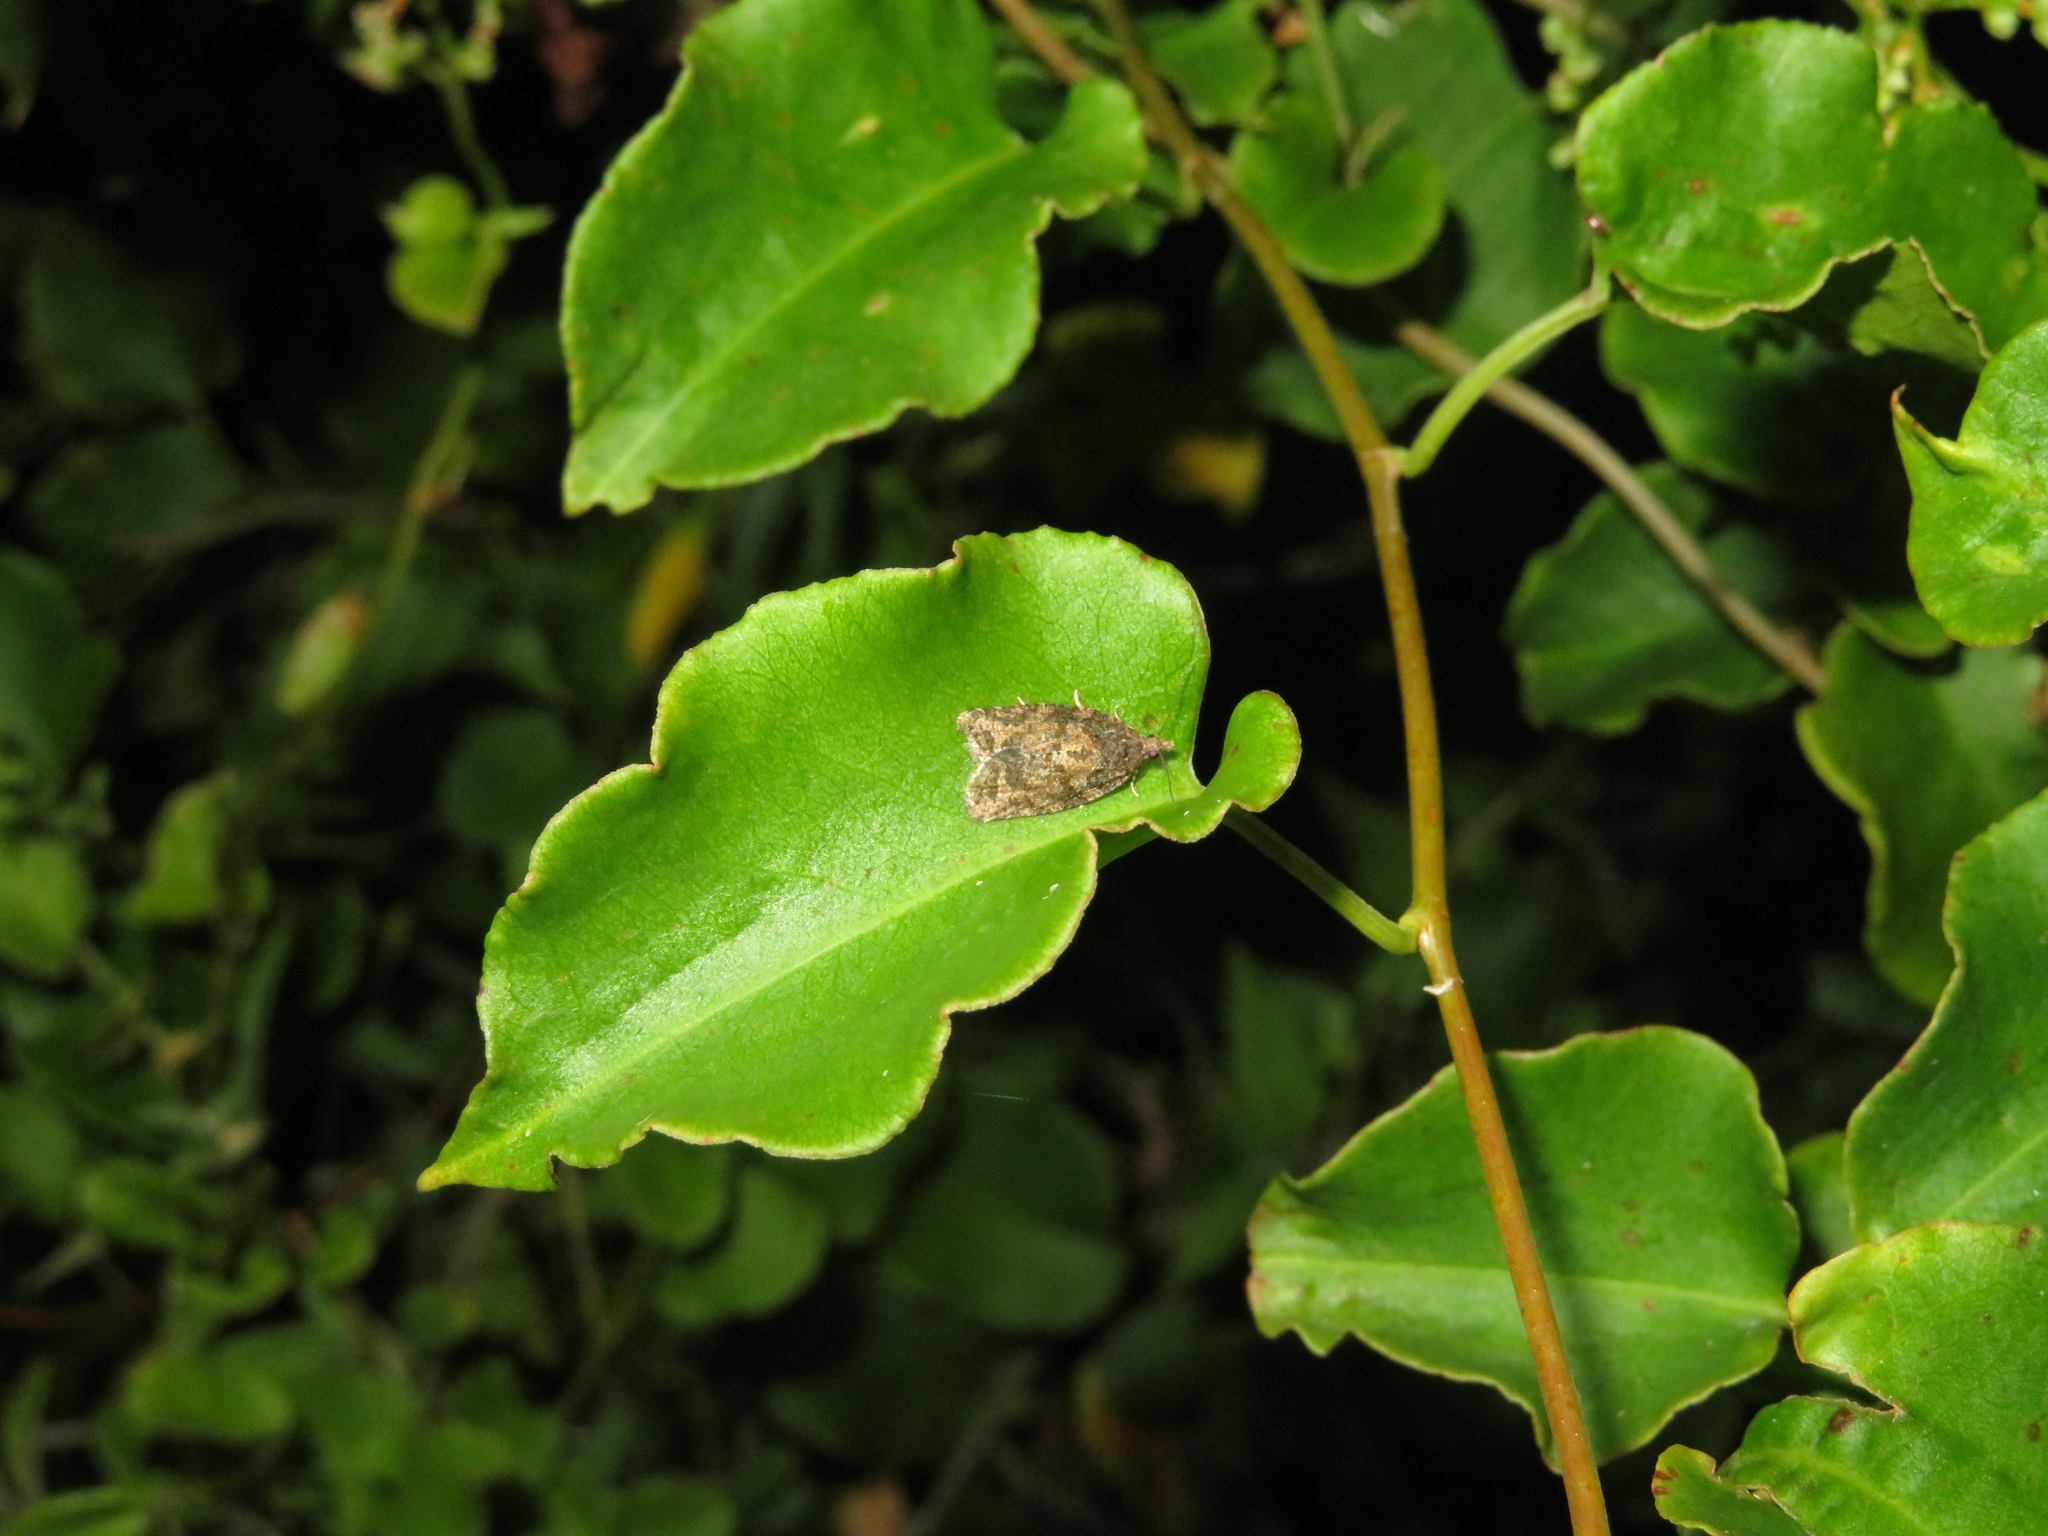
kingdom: Animalia
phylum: Arthropoda
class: Insecta
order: Lepidoptera
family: Tortricidae
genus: Capua
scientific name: Capua intractana
